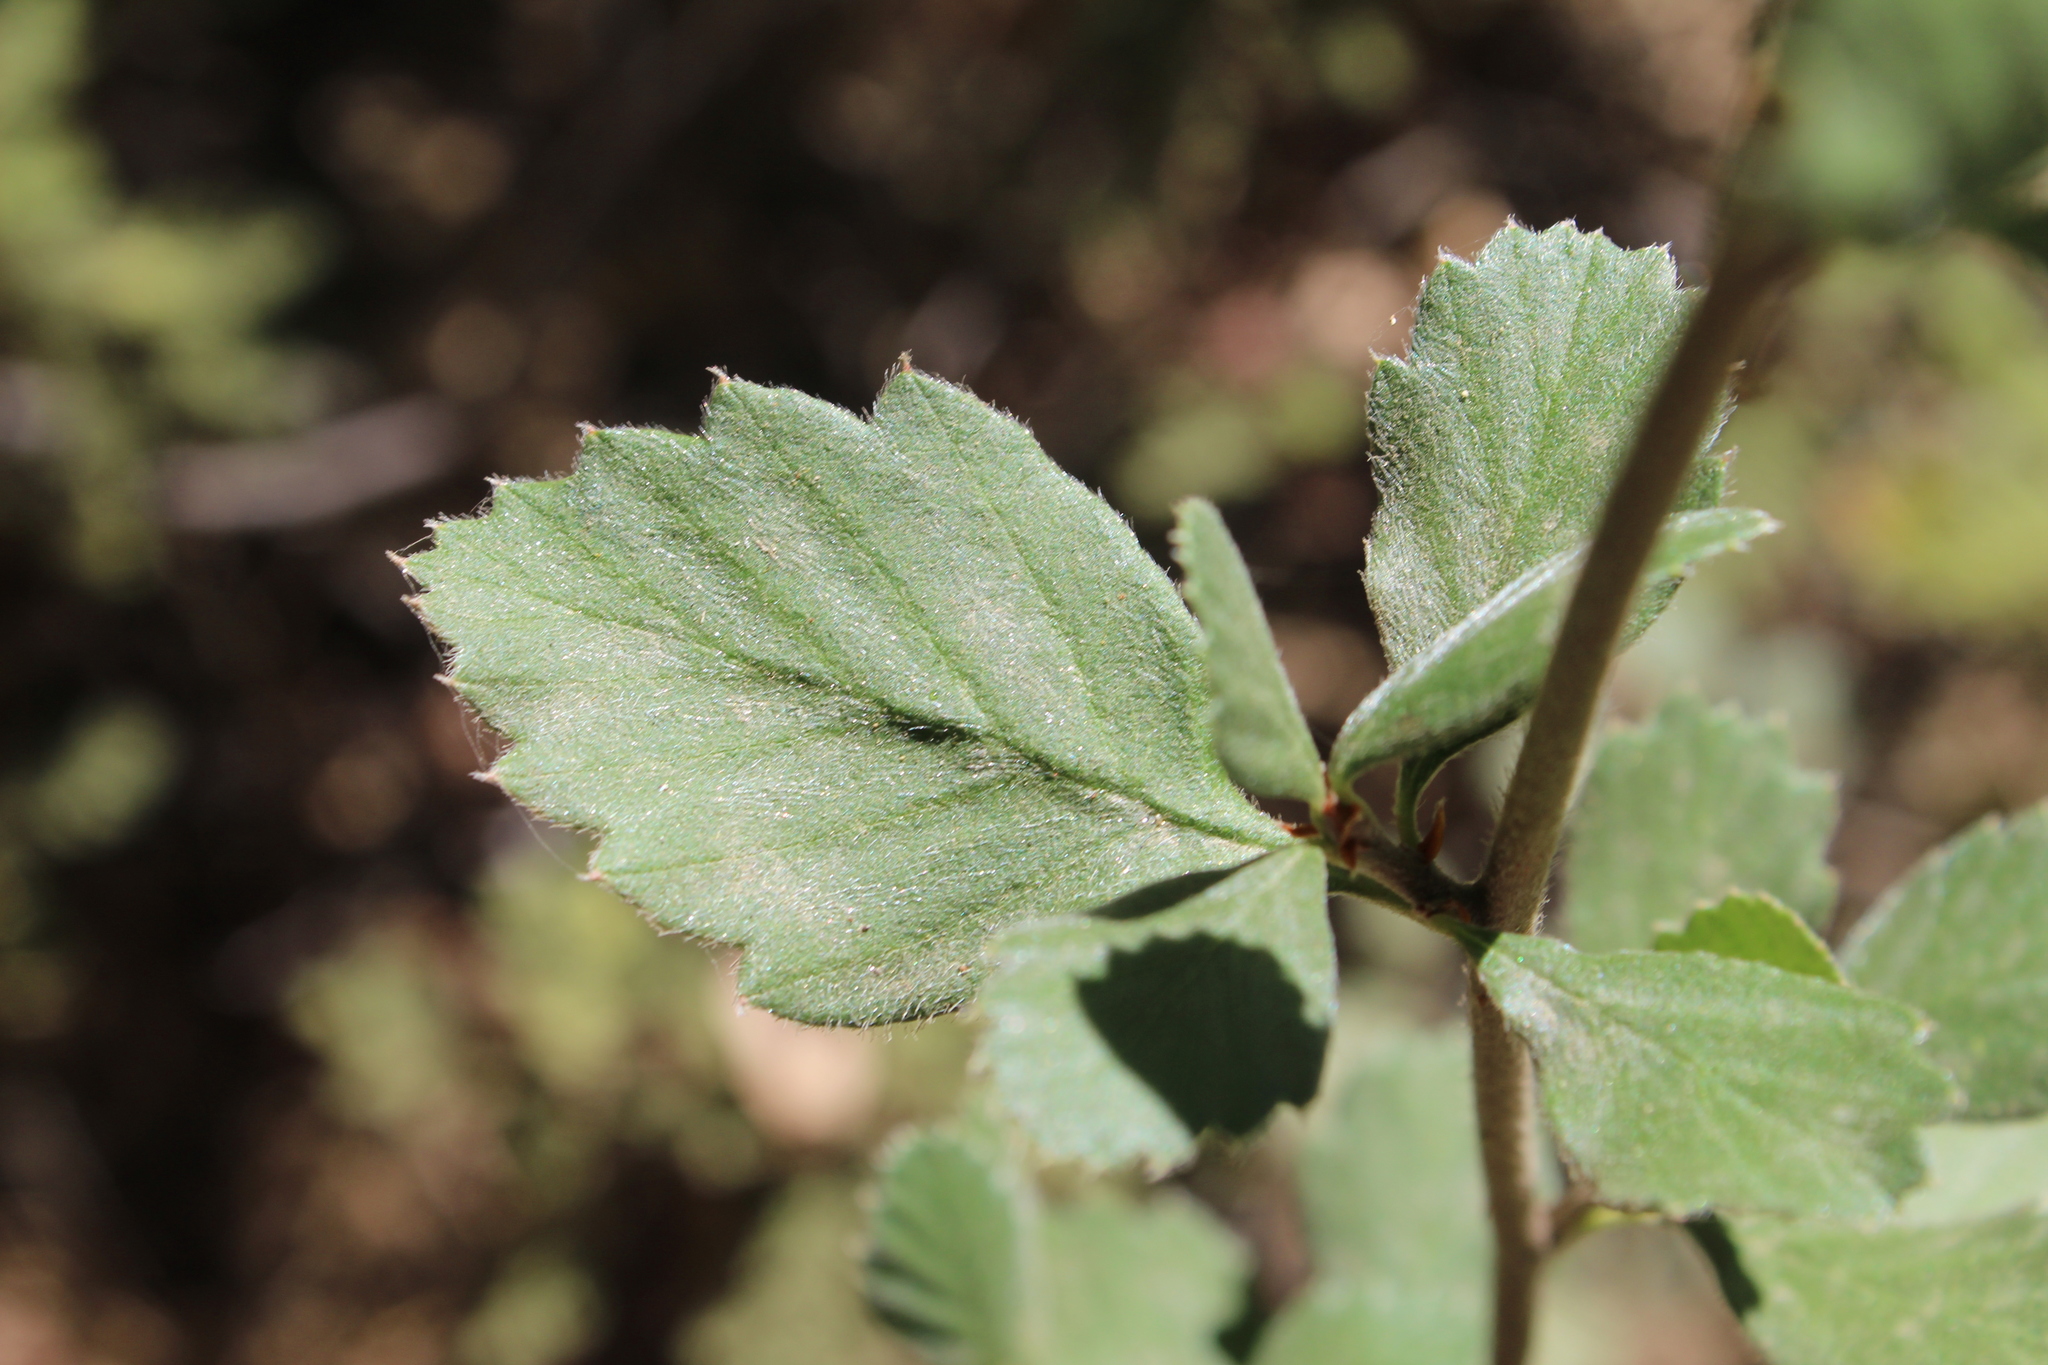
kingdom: Plantae
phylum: Tracheophyta
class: Magnoliopsida
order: Rosales
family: Rosaceae
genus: Cercocarpus
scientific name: Cercocarpus betuloides
